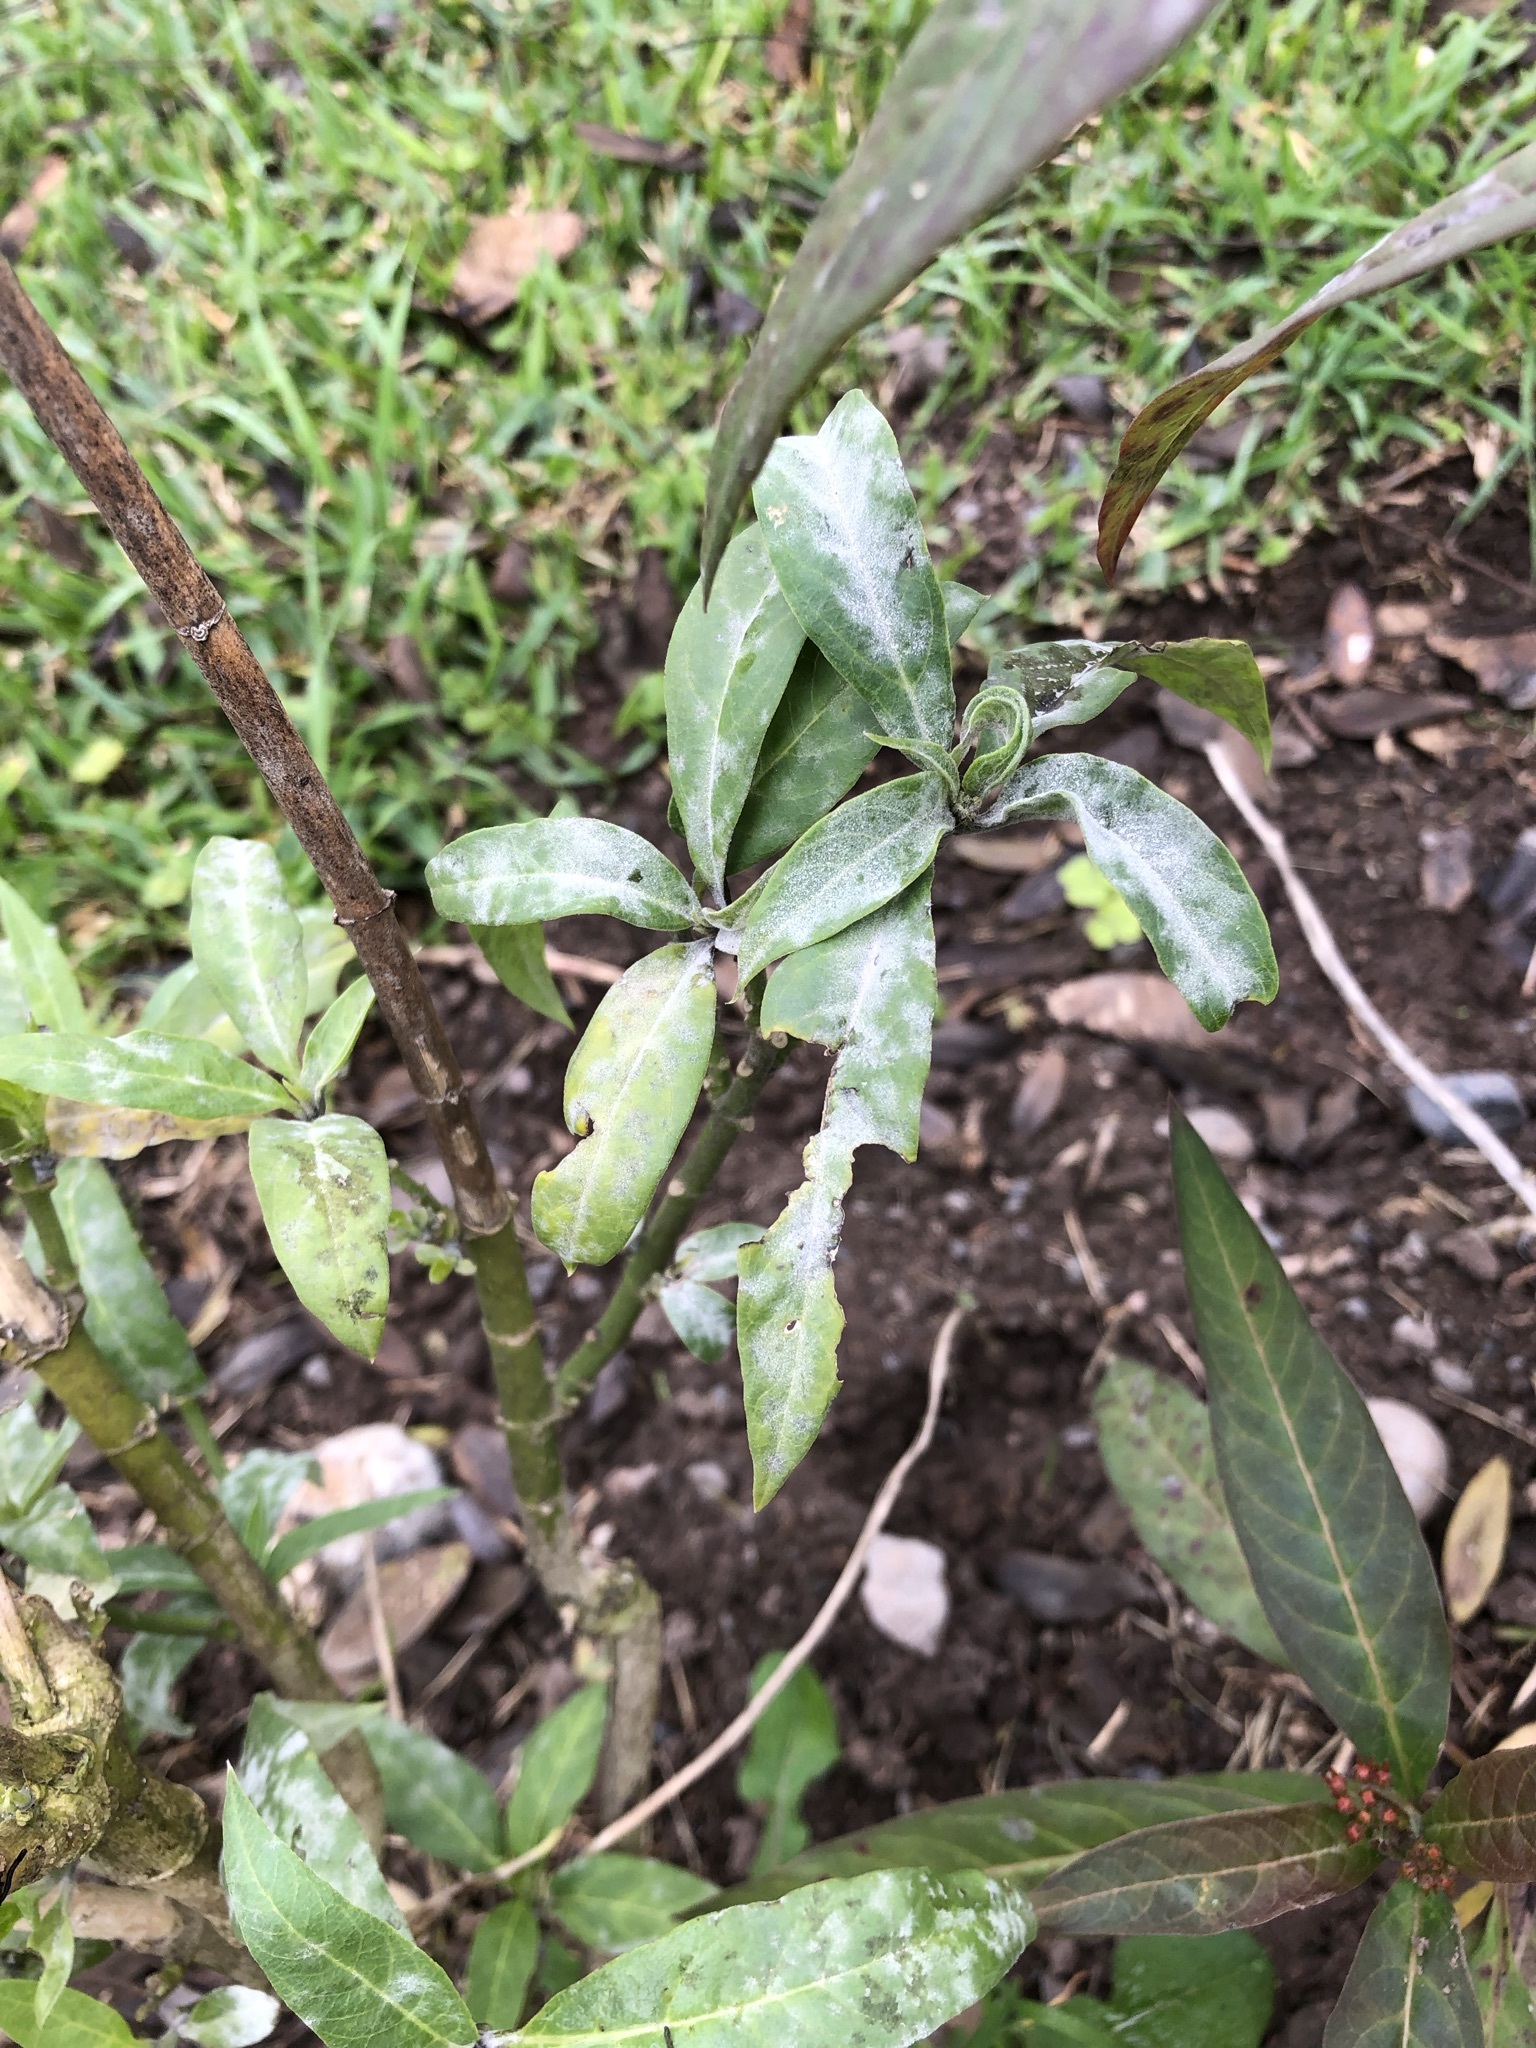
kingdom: Plantae
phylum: Tracheophyta
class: Magnoliopsida
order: Gentianales
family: Apocynaceae
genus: Asclepias
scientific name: Asclepias curassavica
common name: Bloodflower
